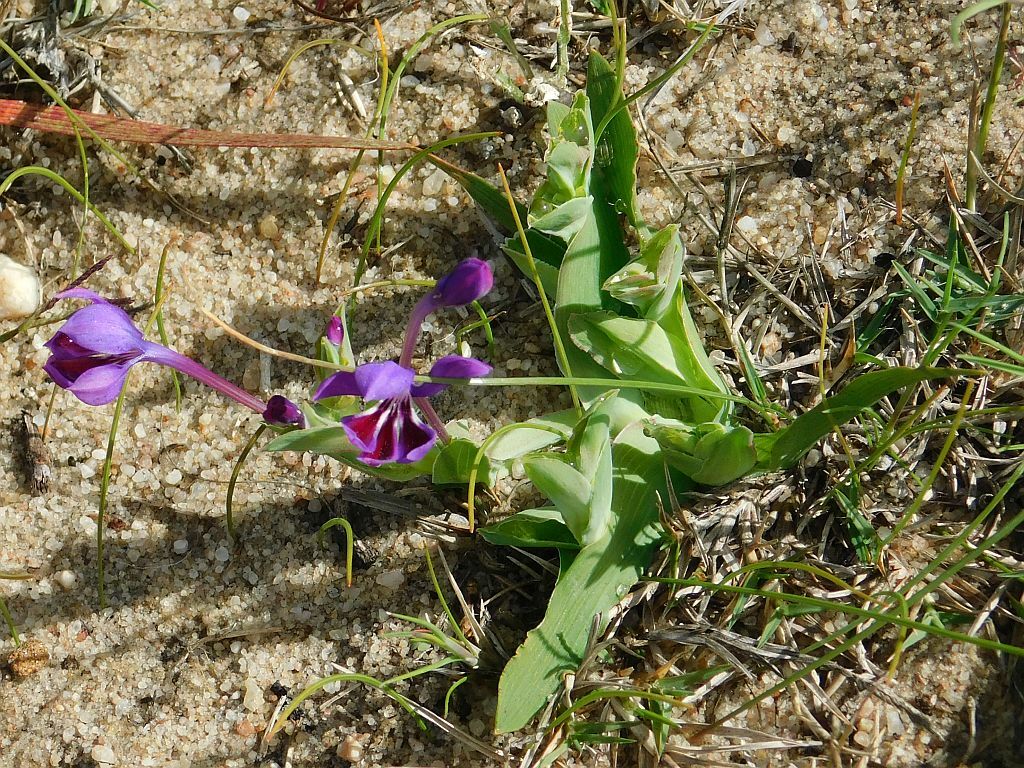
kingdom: Plantae
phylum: Tracheophyta
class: Liliopsida
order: Asparagales
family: Iridaceae
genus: Lapeirousia
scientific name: Lapeirousia jacquinii
